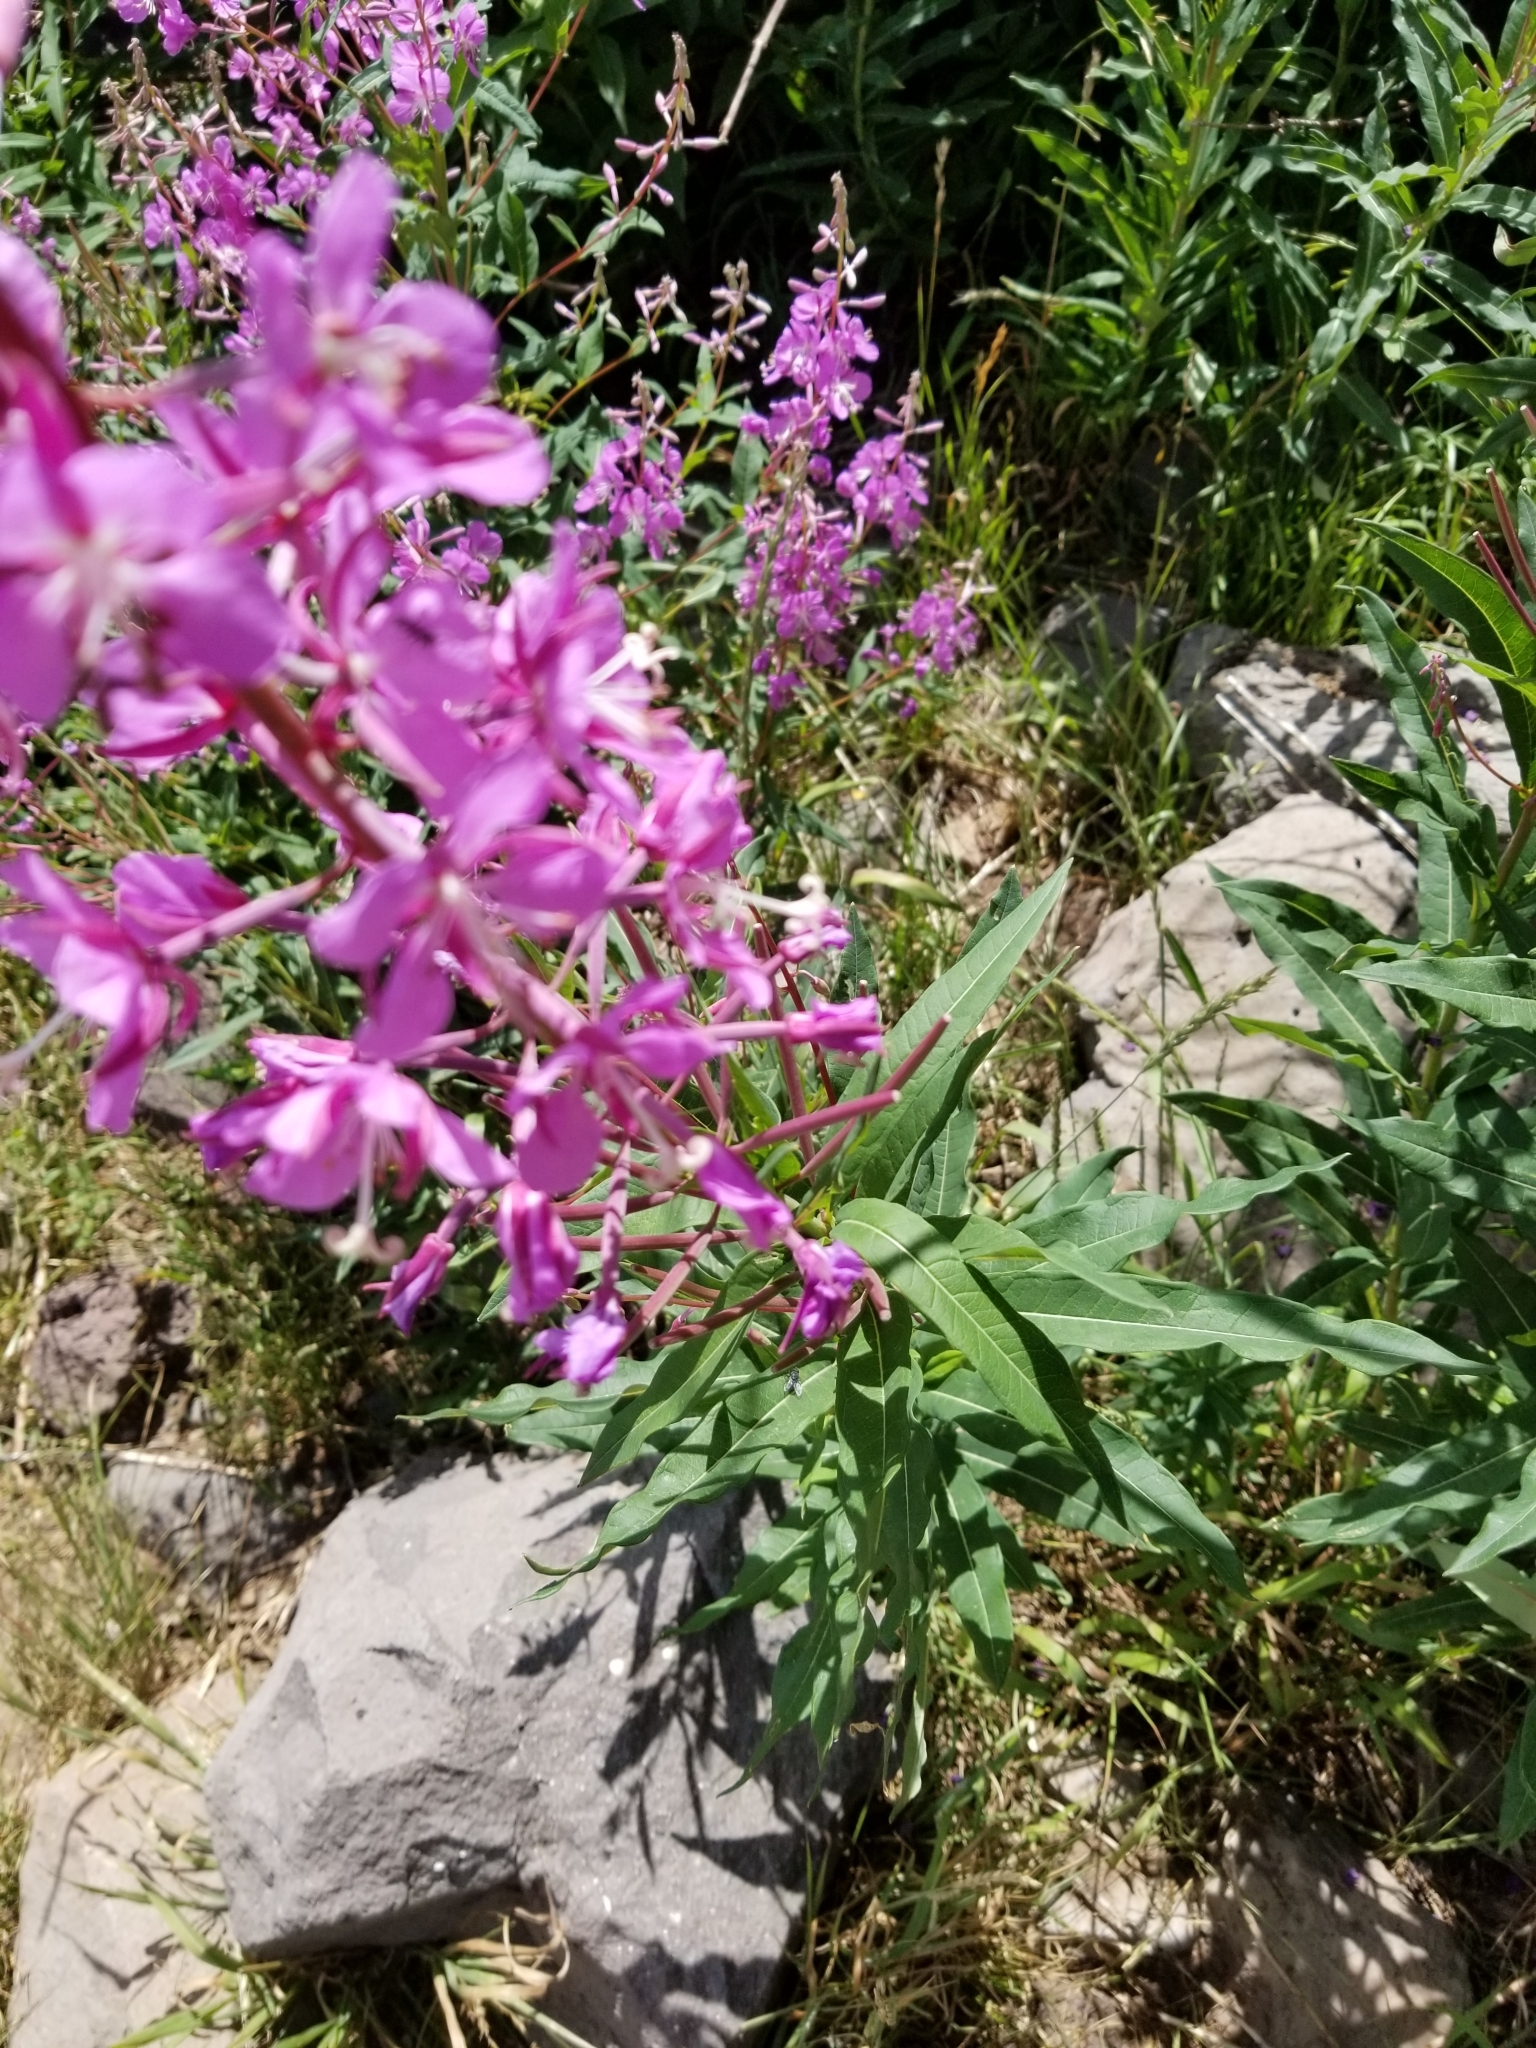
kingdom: Plantae
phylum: Tracheophyta
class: Magnoliopsida
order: Myrtales
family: Onagraceae
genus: Chamaenerion
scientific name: Chamaenerion angustifolium
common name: Fireweed
